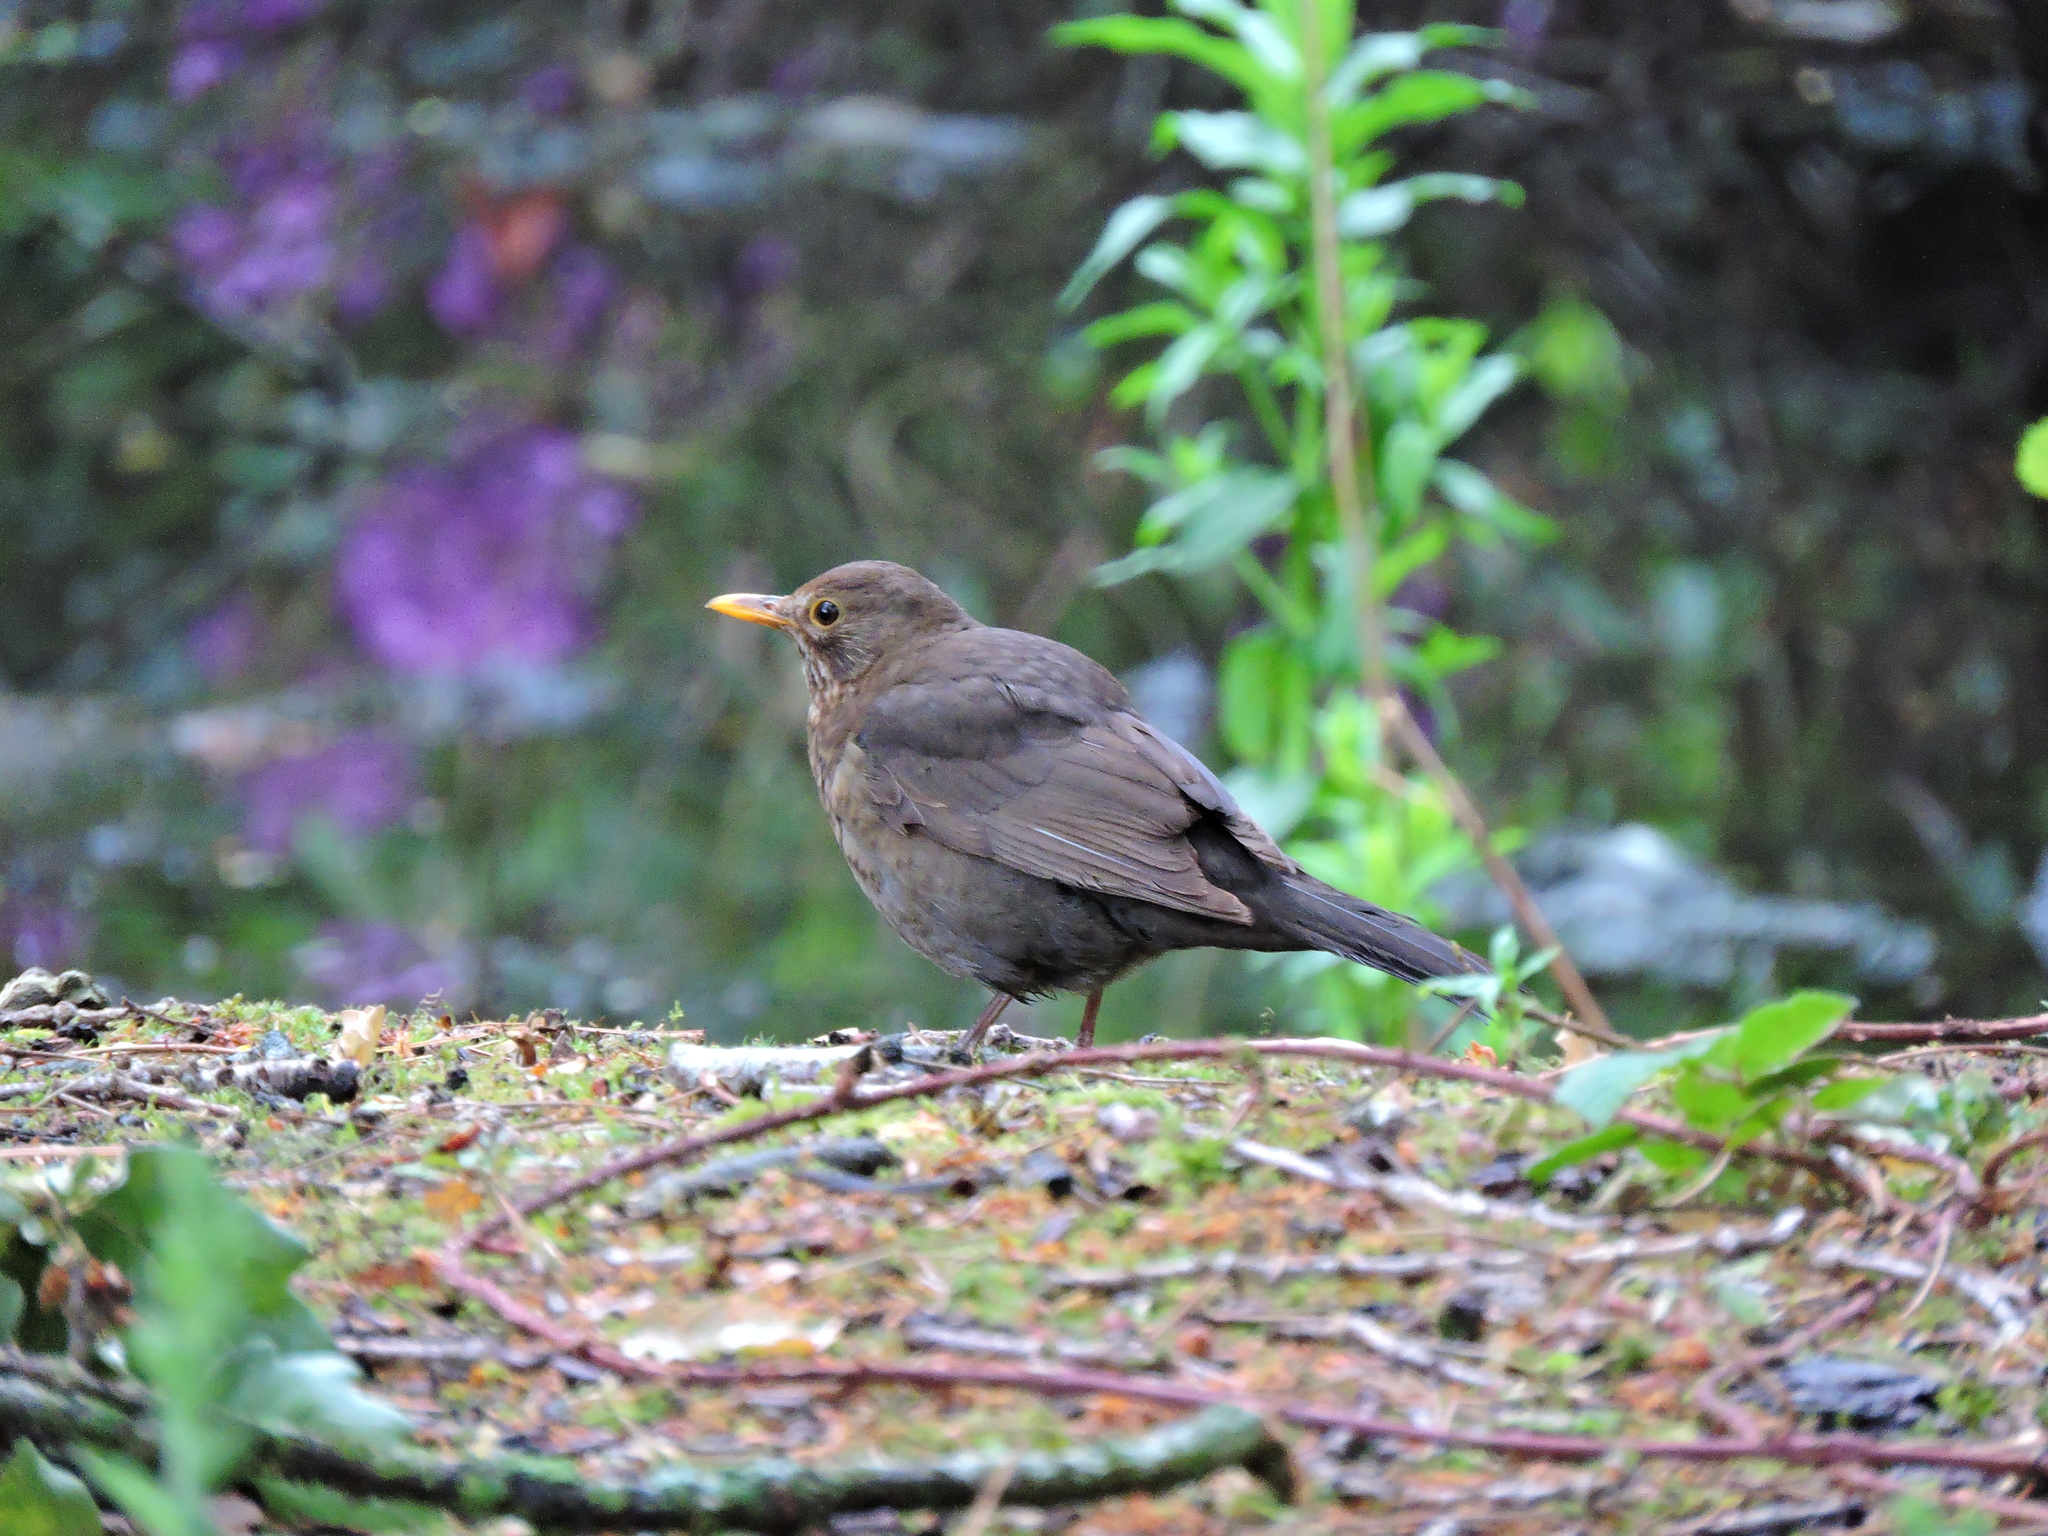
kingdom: Animalia
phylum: Chordata
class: Aves
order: Passeriformes
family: Turdidae
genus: Turdus
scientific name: Turdus merula
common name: Common blackbird
